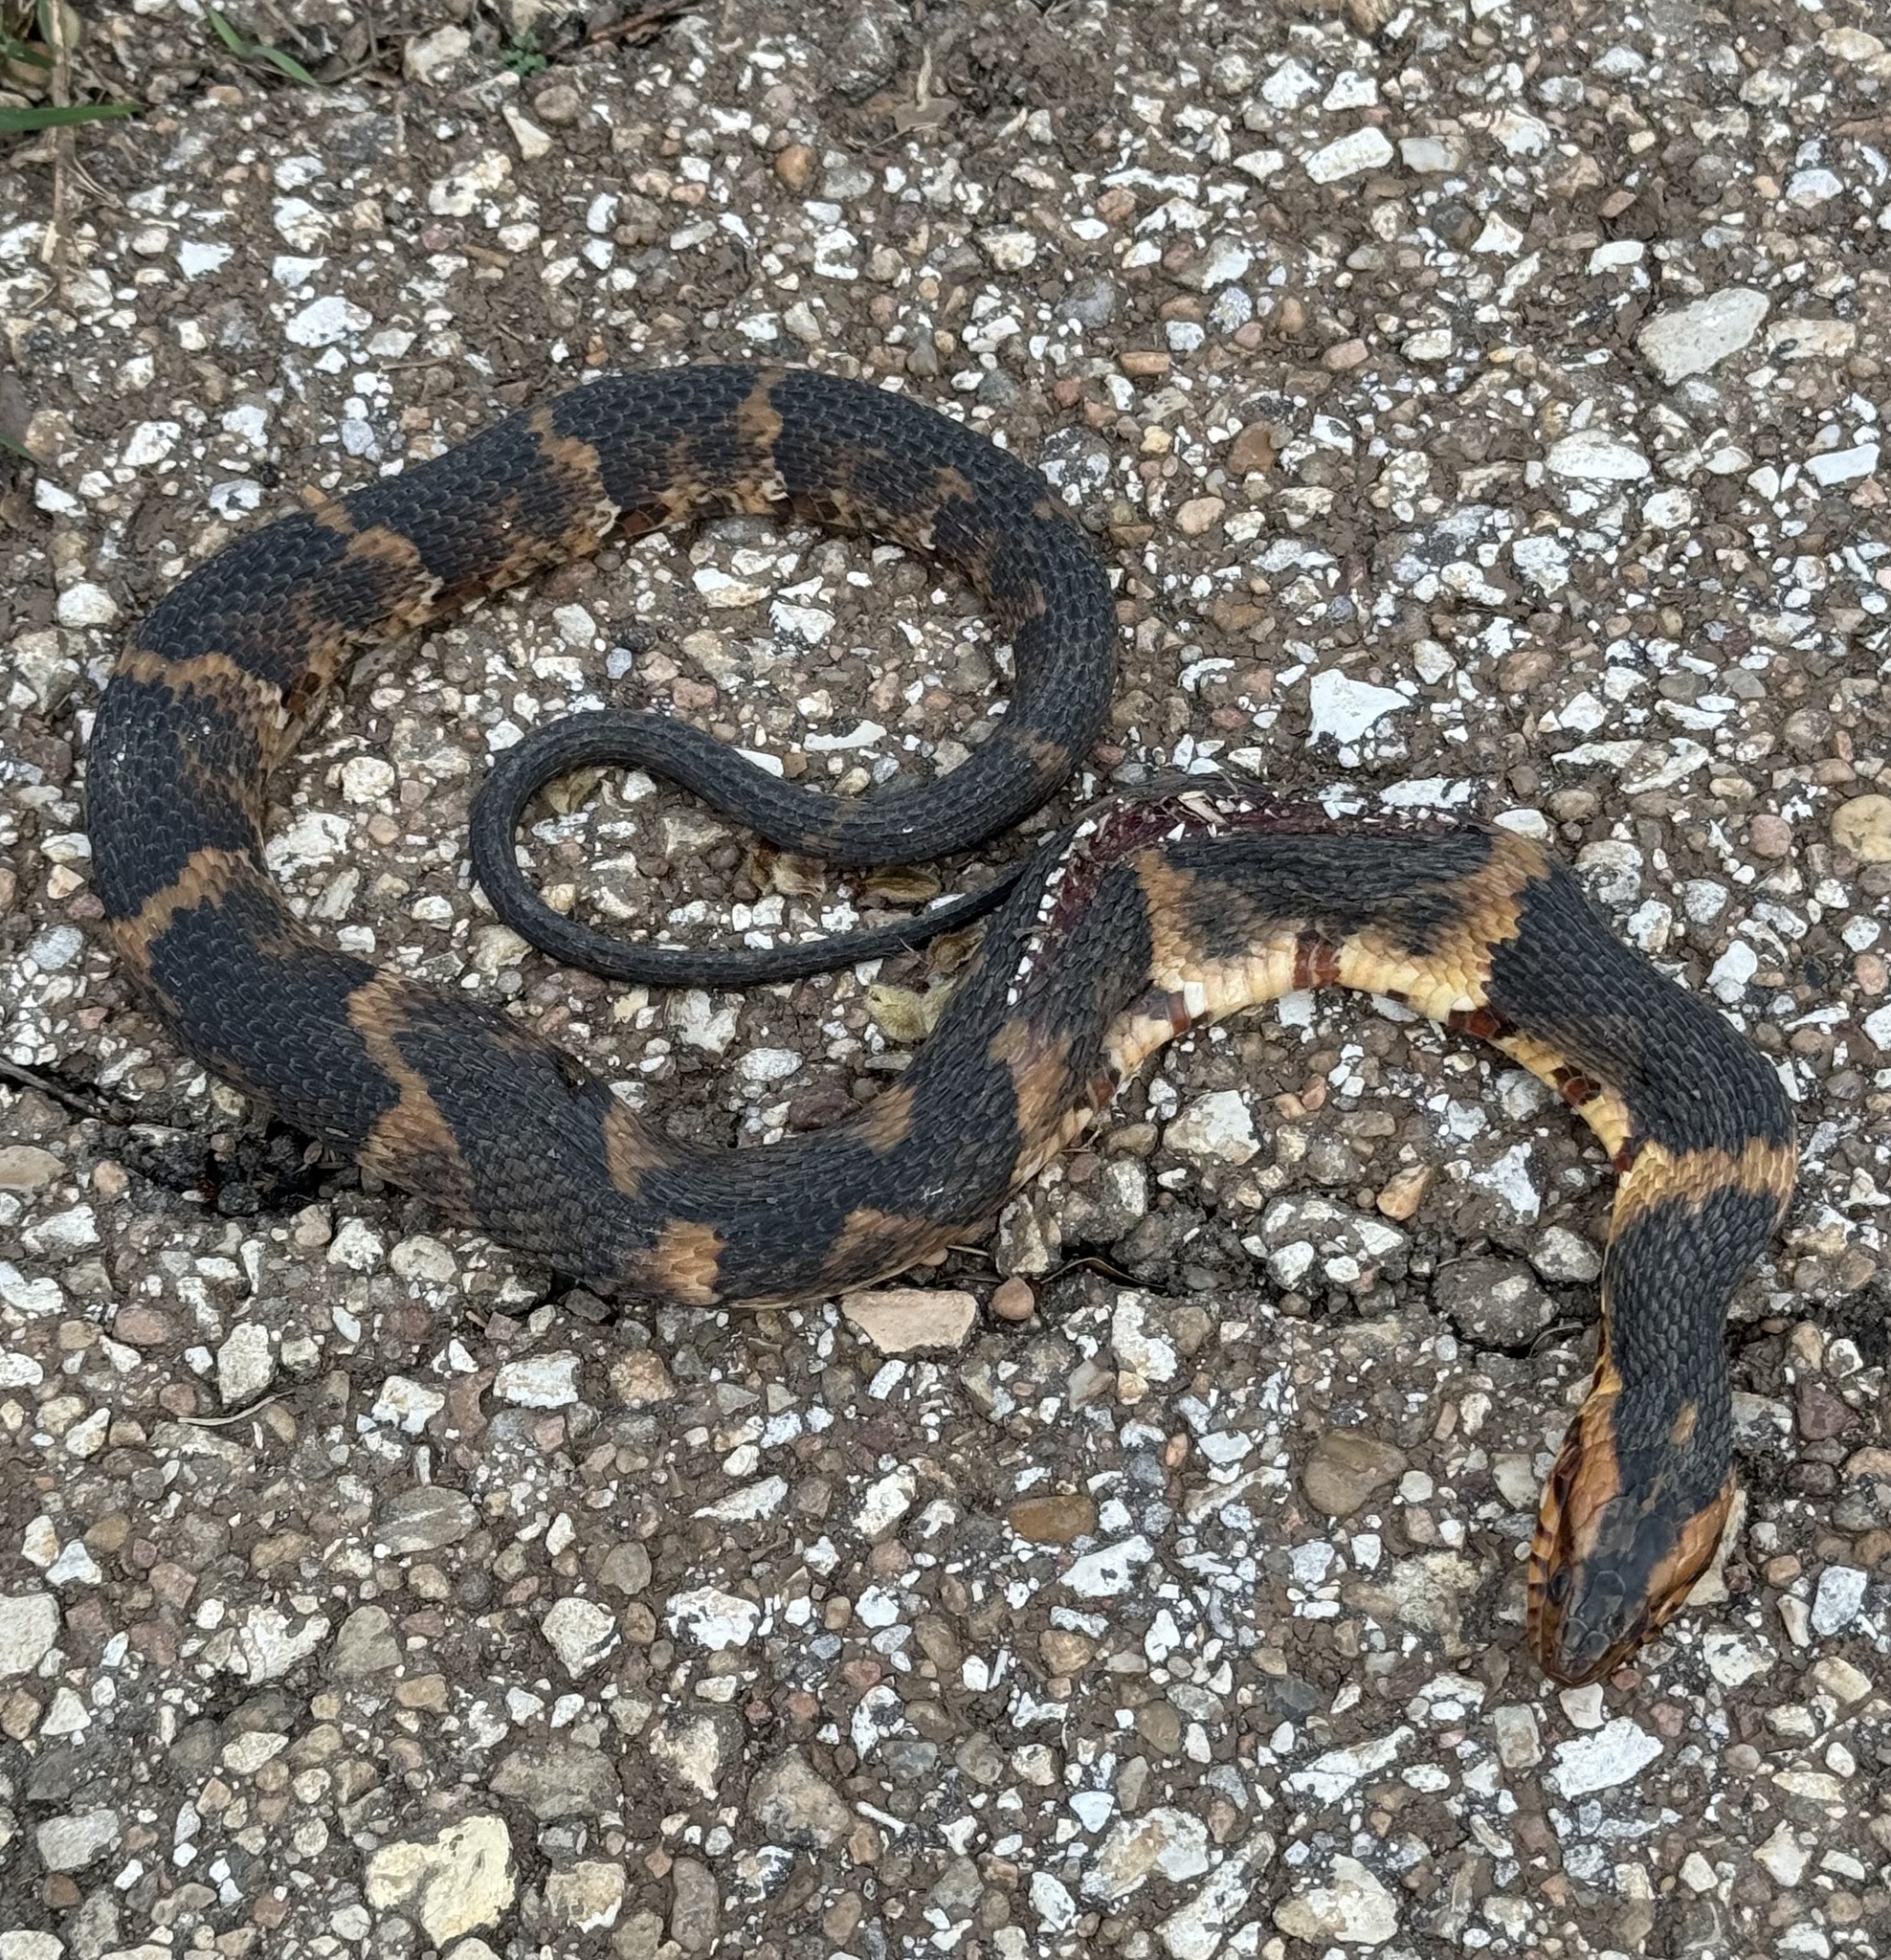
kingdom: Animalia
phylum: Chordata
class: Squamata
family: Colubridae
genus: Nerodia
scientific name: Nerodia fasciata
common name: Southern water snake
